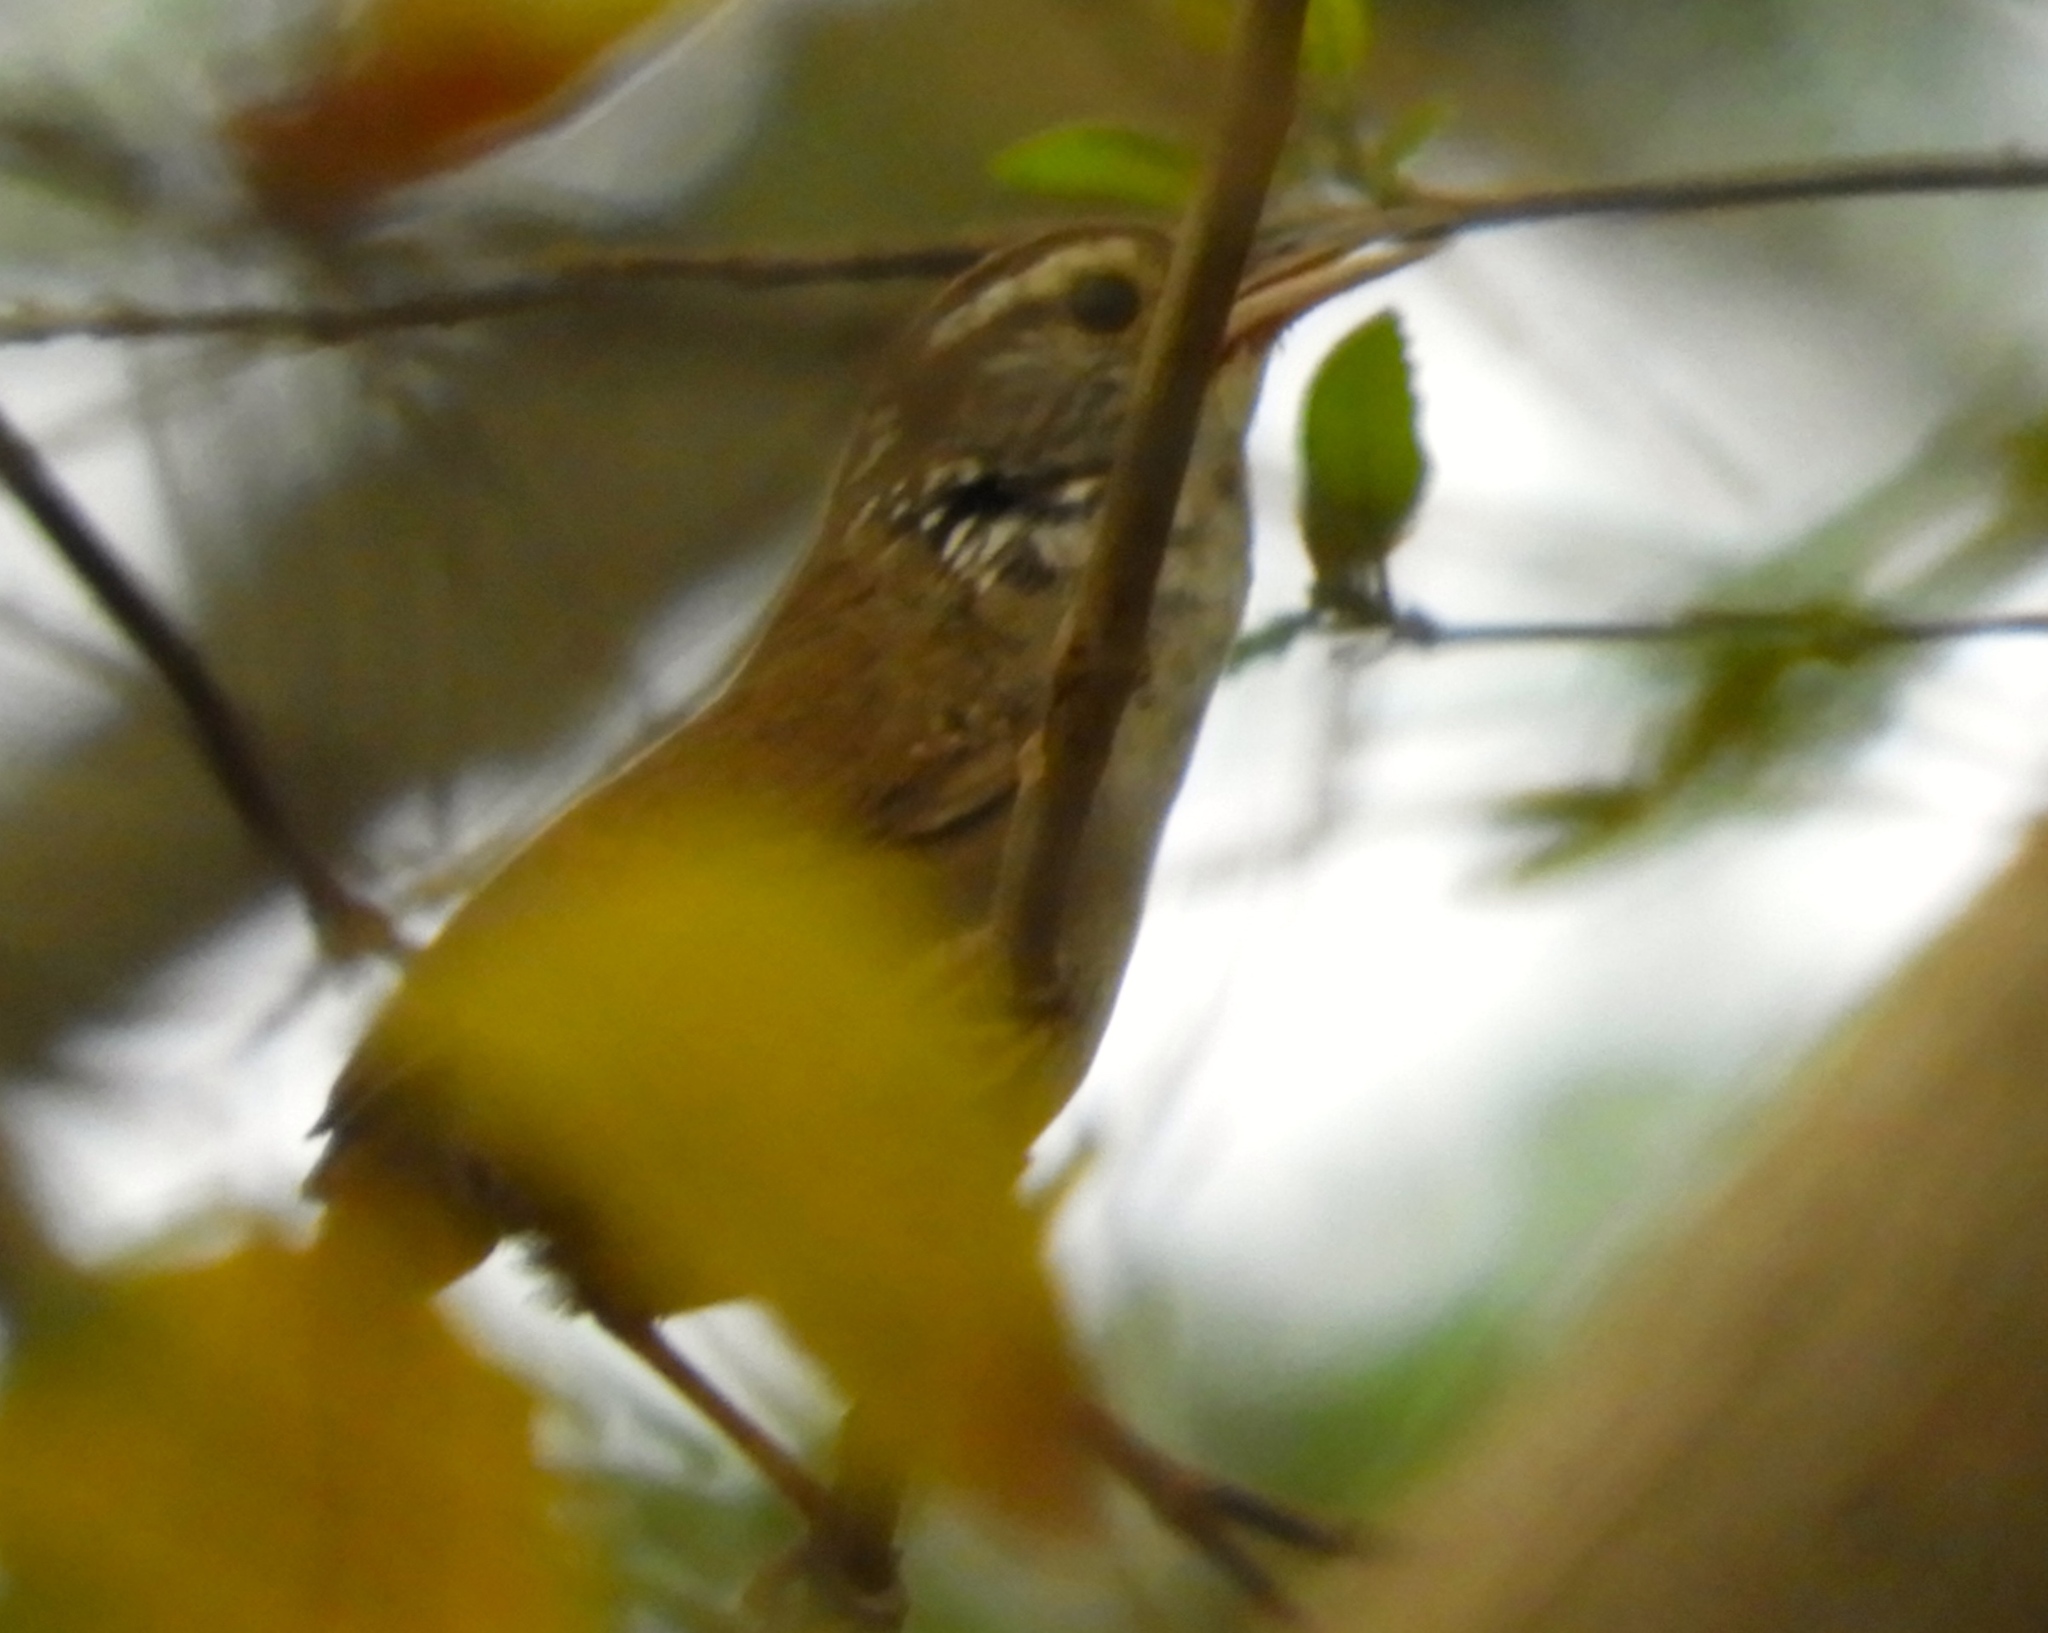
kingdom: Animalia
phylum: Chordata
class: Aves
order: Passeriformes
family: Troglodytidae
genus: Thryophilus
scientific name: Thryophilus sinaloa
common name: Sinaloa wren
